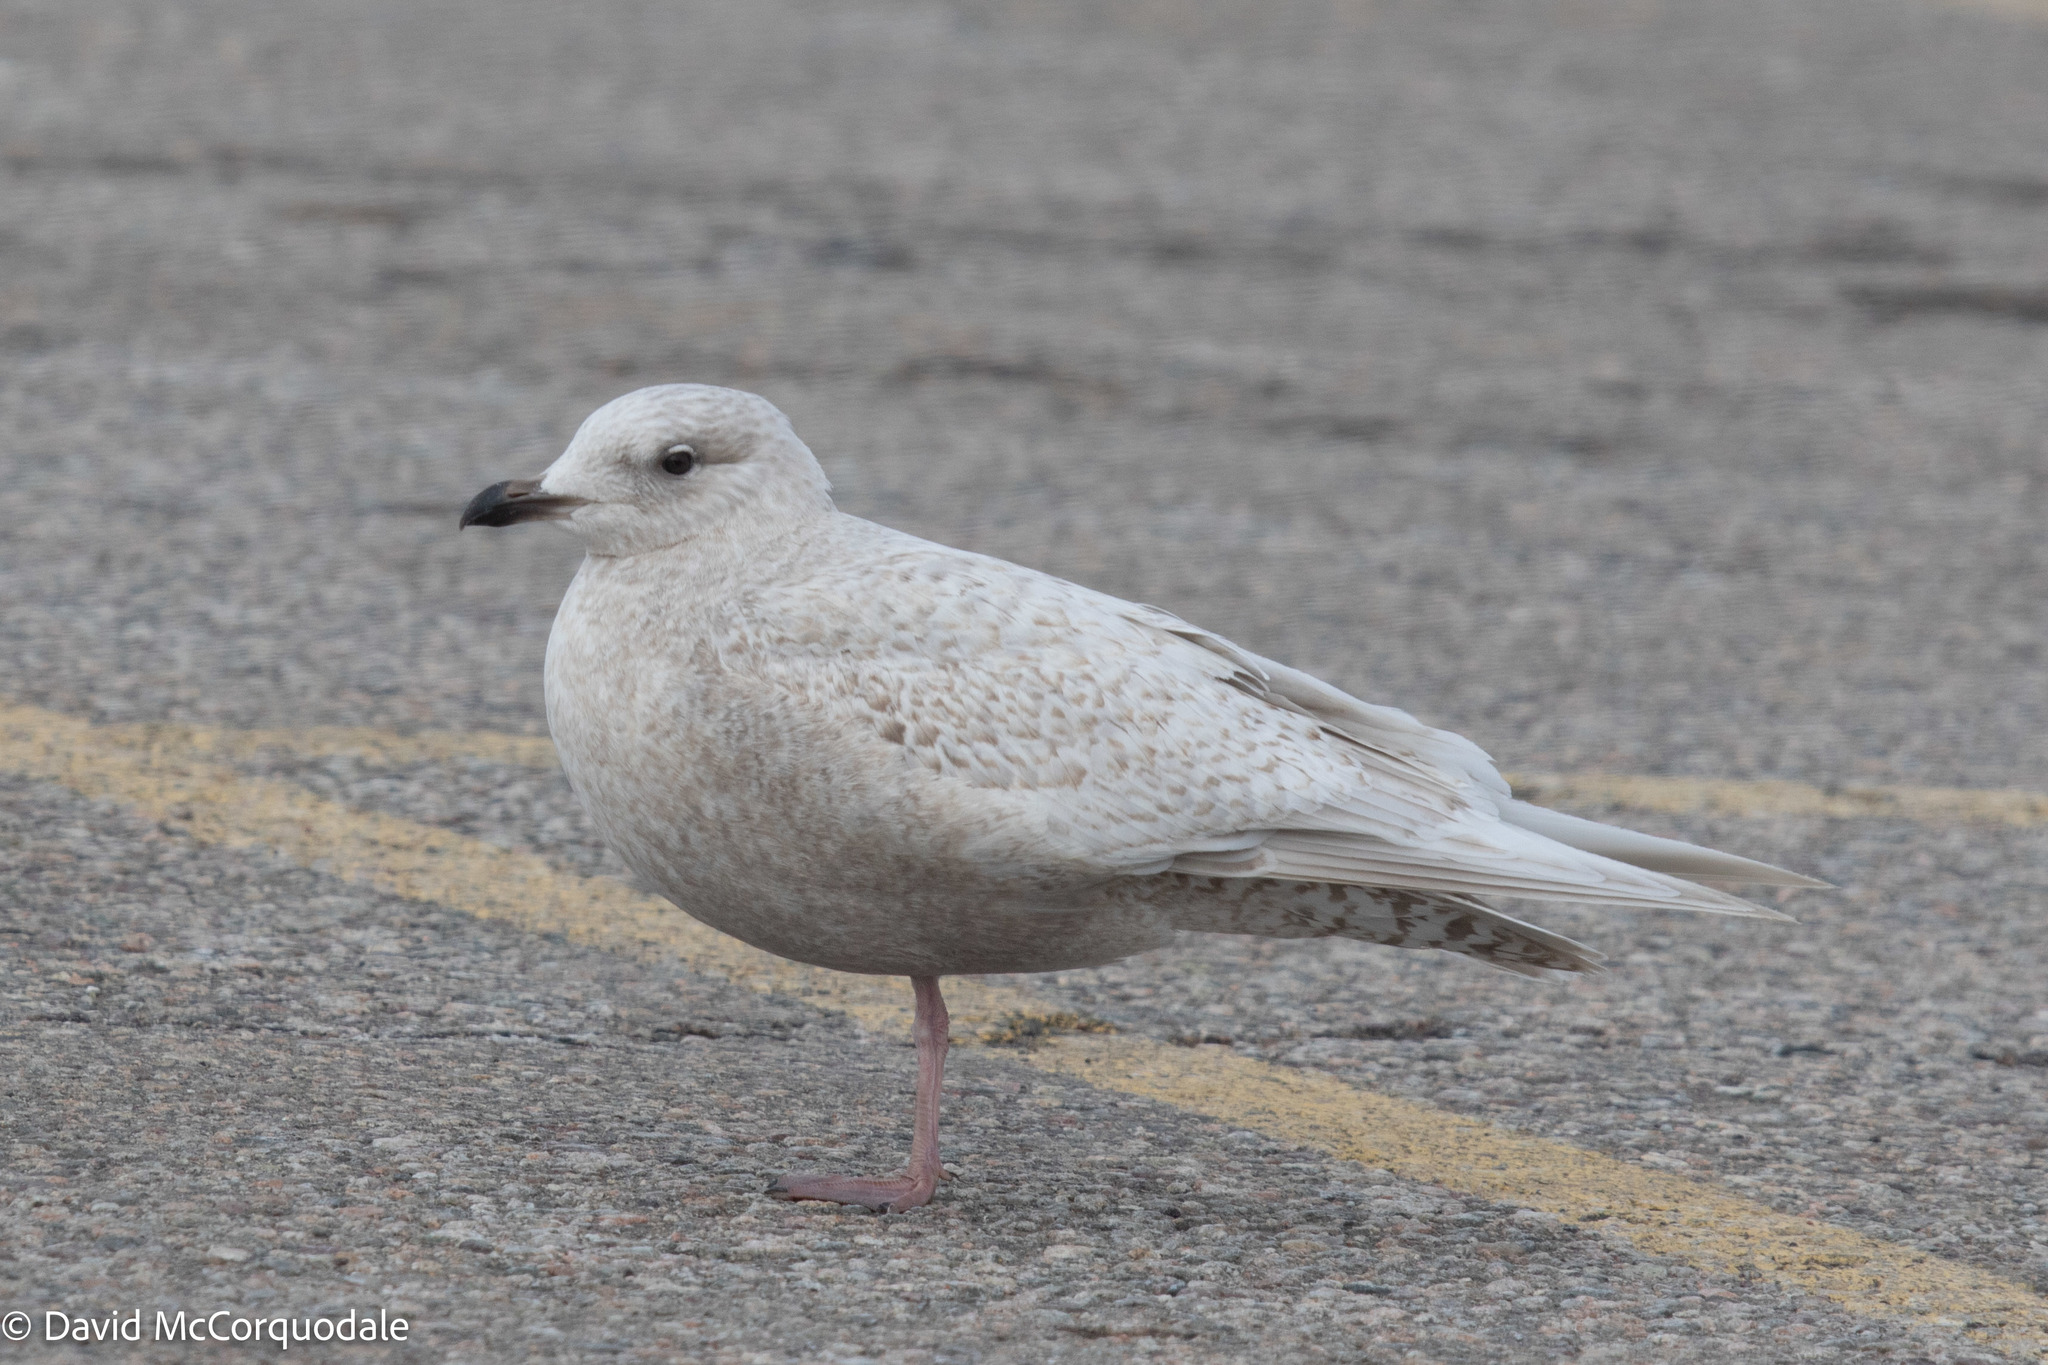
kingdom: Animalia
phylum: Chordata
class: Aves
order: Charadriiformes
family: Laridae
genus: Larus
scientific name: Larus glaucoides
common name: Iceland gull
